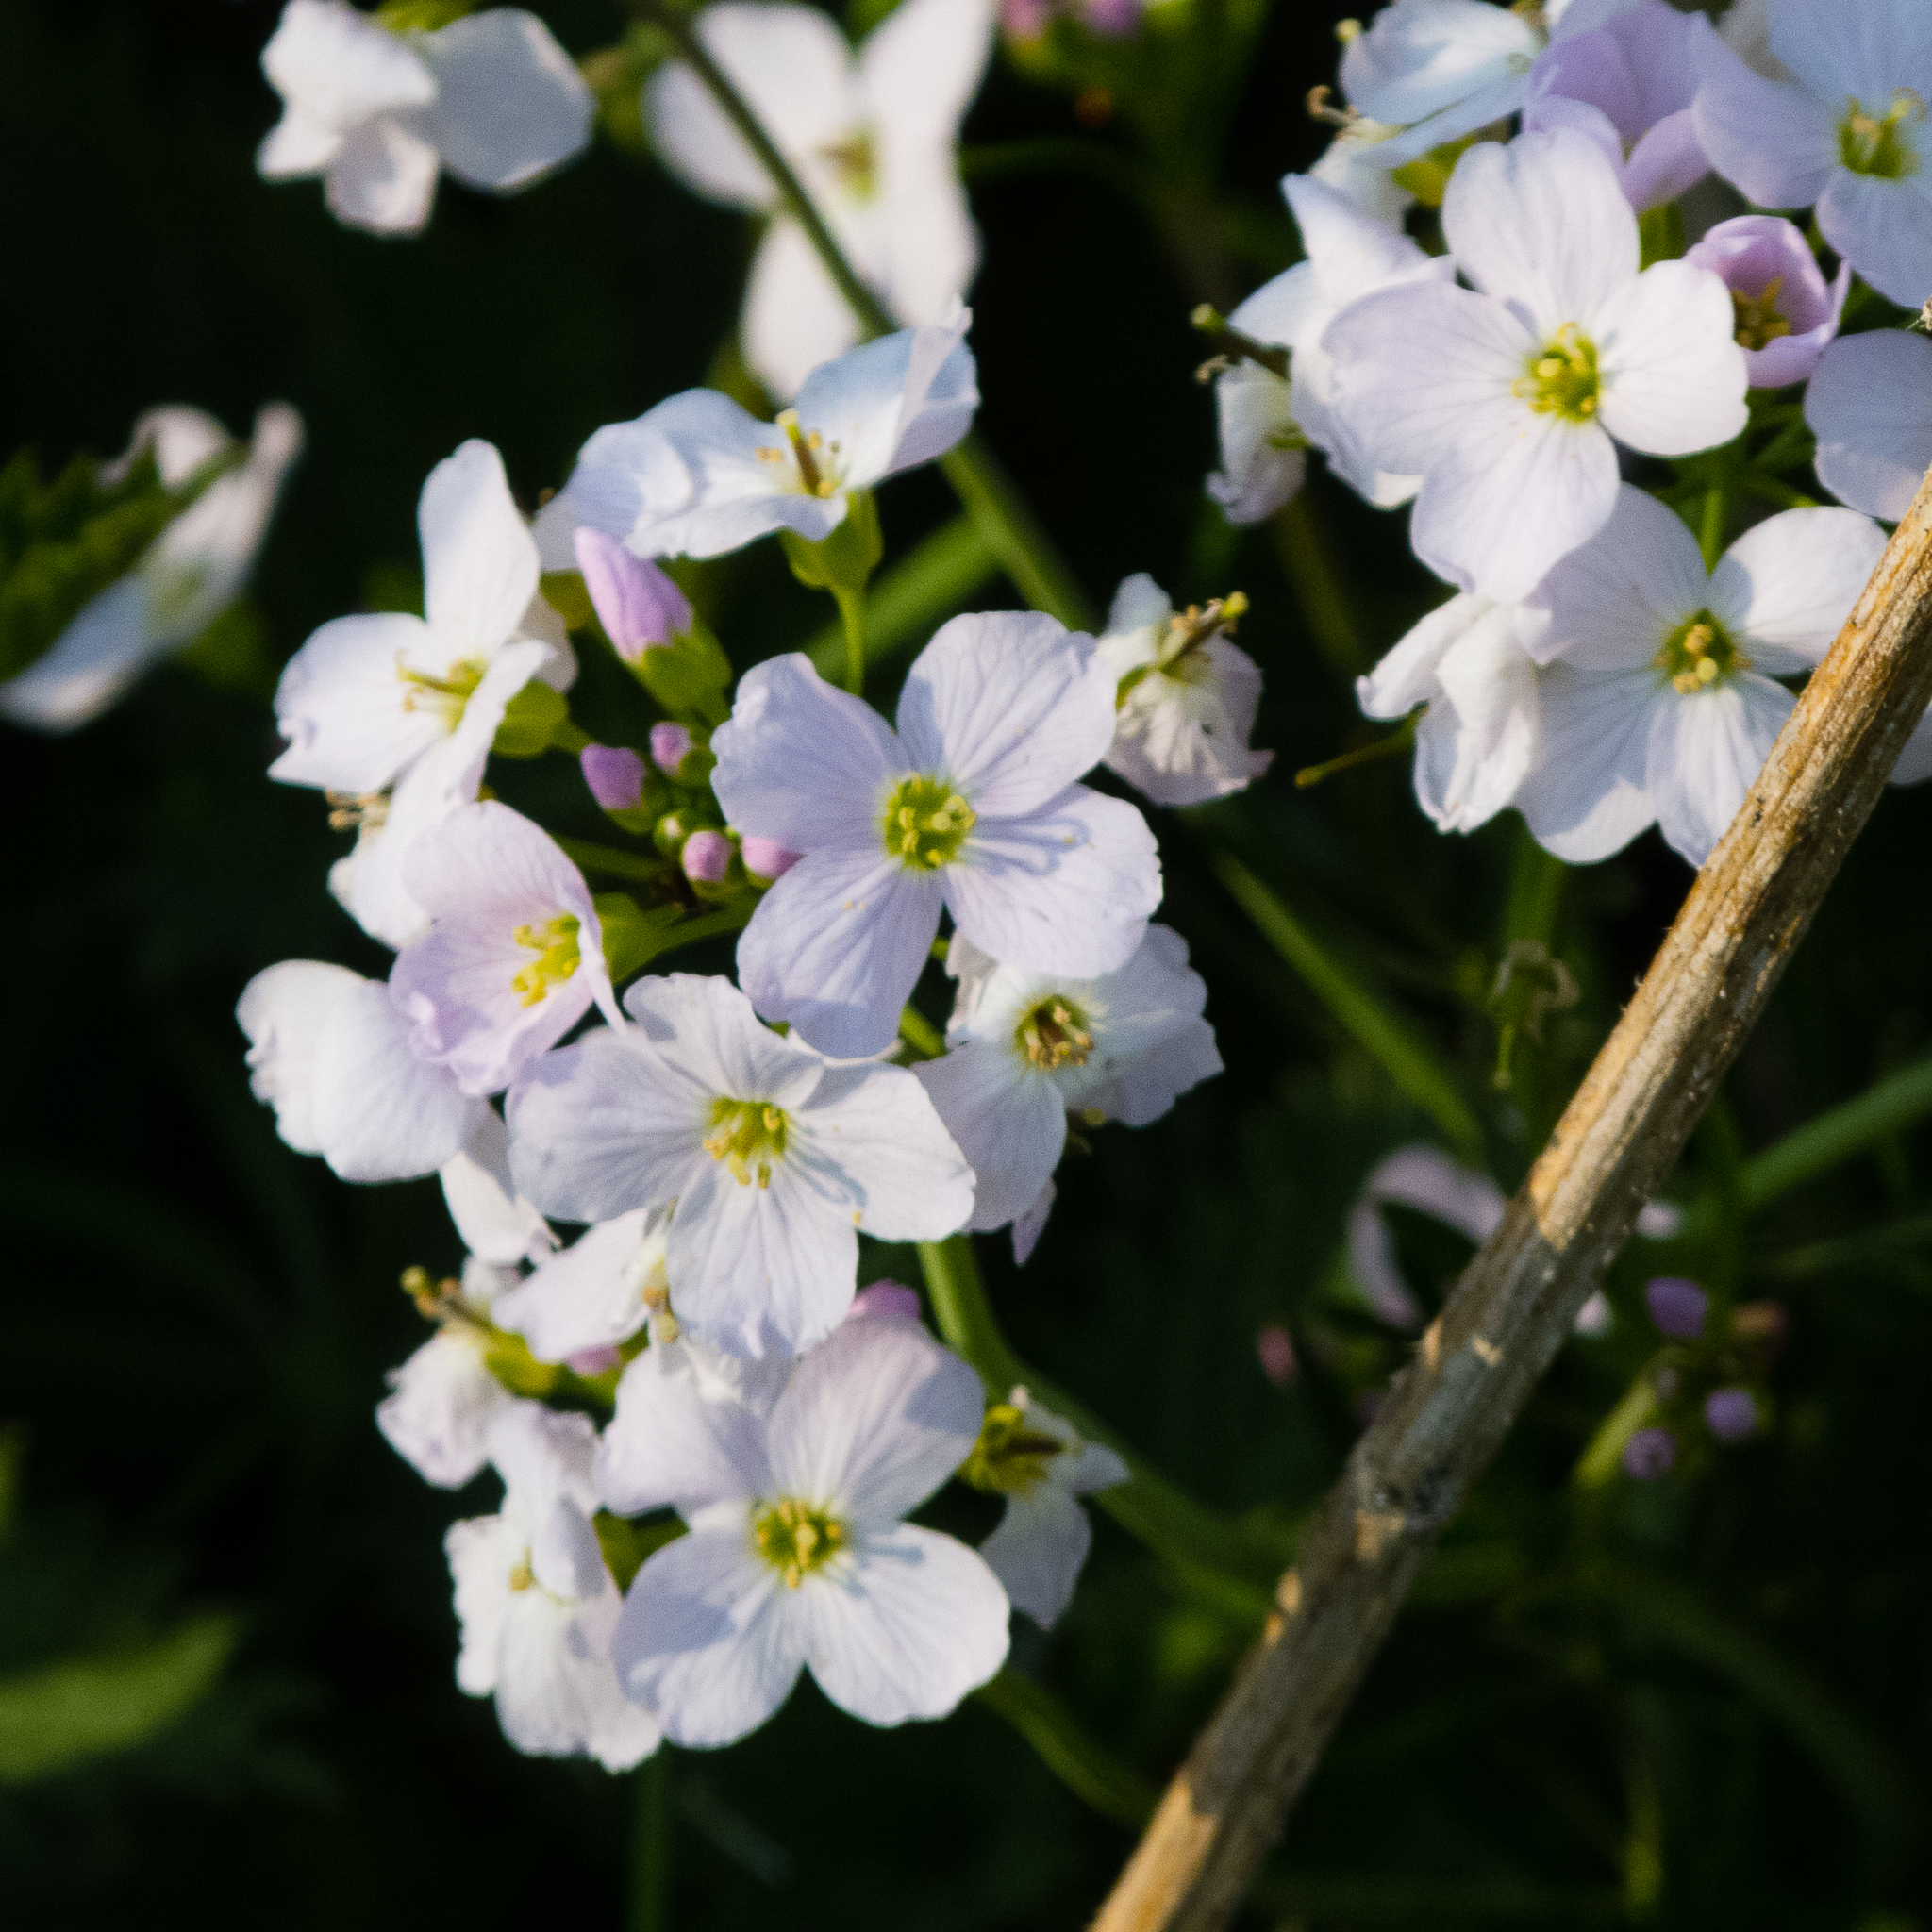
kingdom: Plantae
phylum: Tracheophyta
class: Magnoliopsida
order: Brassicales
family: Brassicaceae
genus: Cardamine
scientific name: Cardamine pratensis
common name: Cuckoo flower
